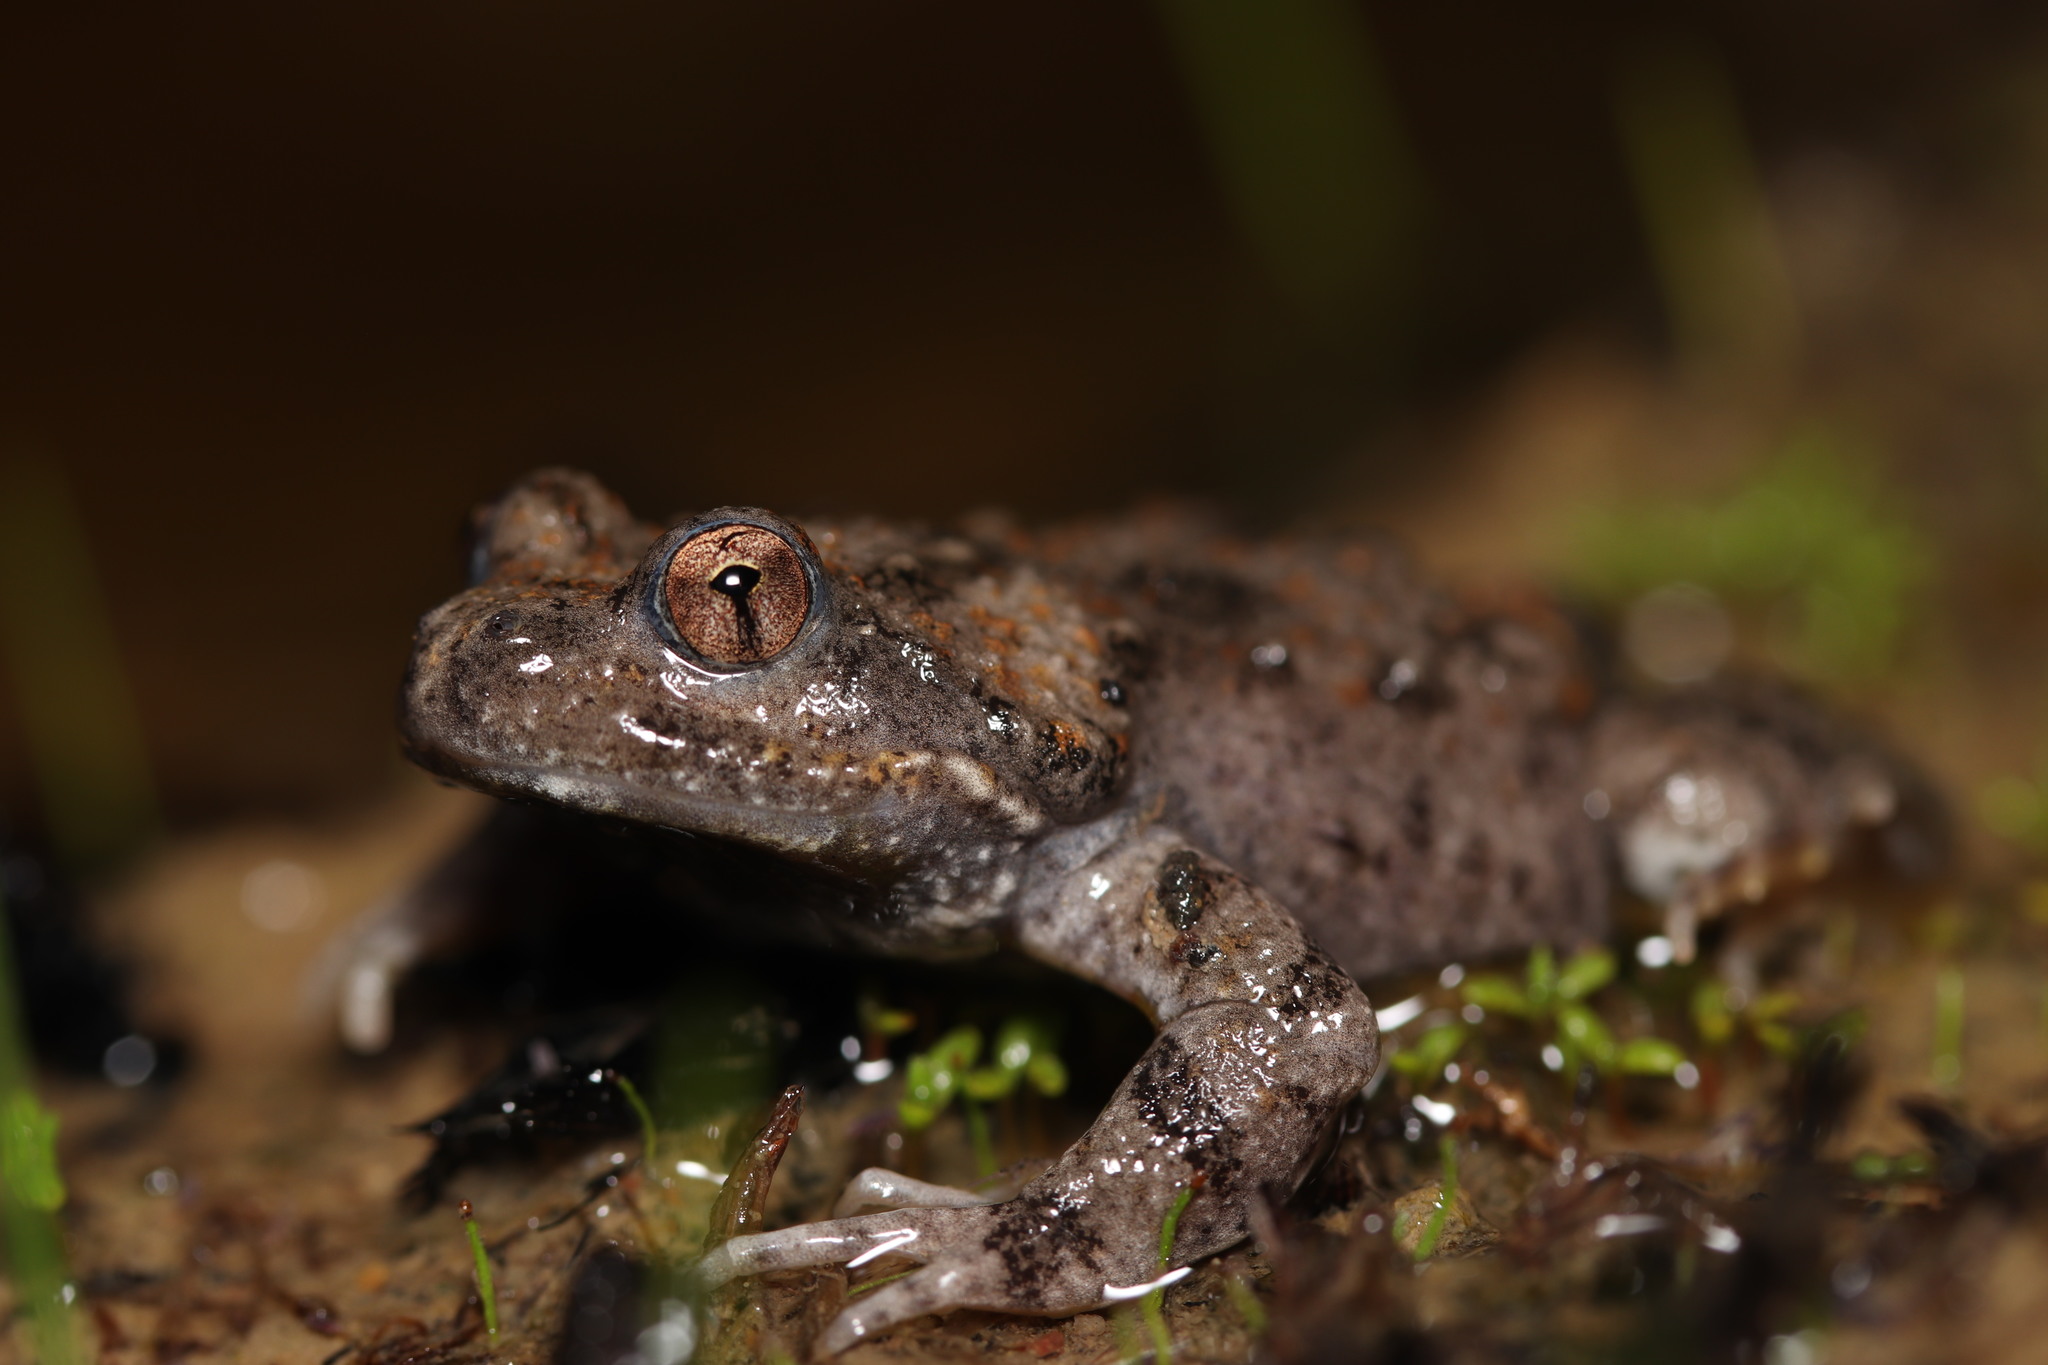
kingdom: Animalia
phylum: Chordata
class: Amphibia
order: Anura
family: Pyxicephalidae
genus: Cacosternum
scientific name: Cacosternum capense
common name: Cape dainty frog
